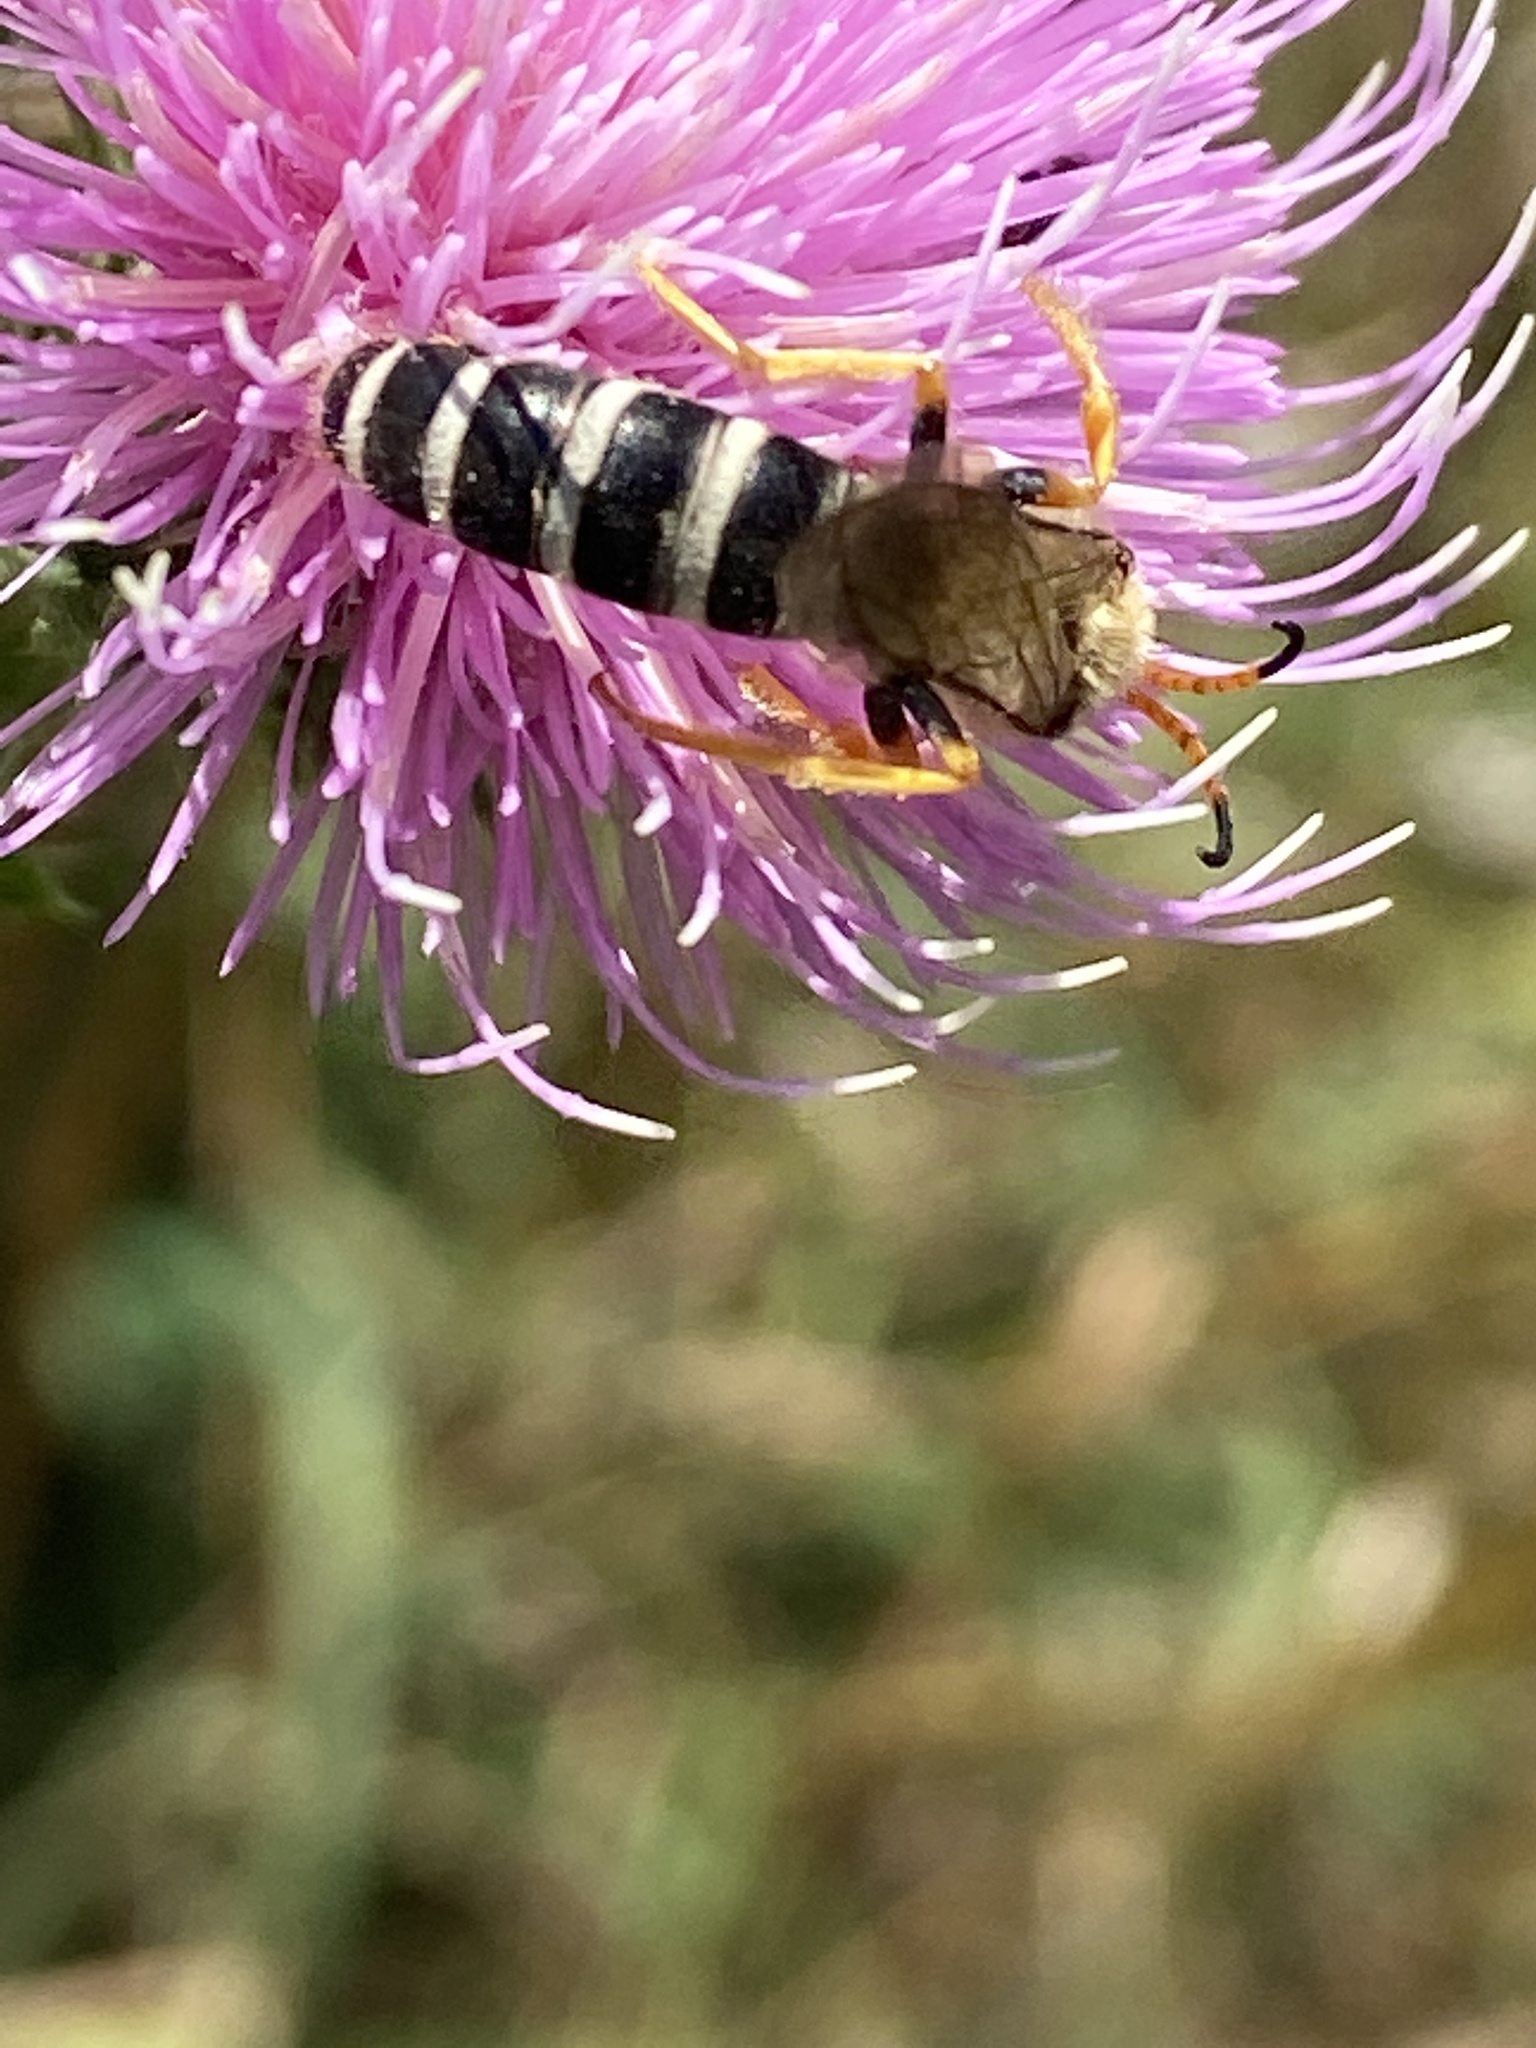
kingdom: Animalia
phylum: Arthropoda
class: Insecta
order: Hymenoptera
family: Halictidae
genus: Halictus
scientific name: Halictus sexcinctus
